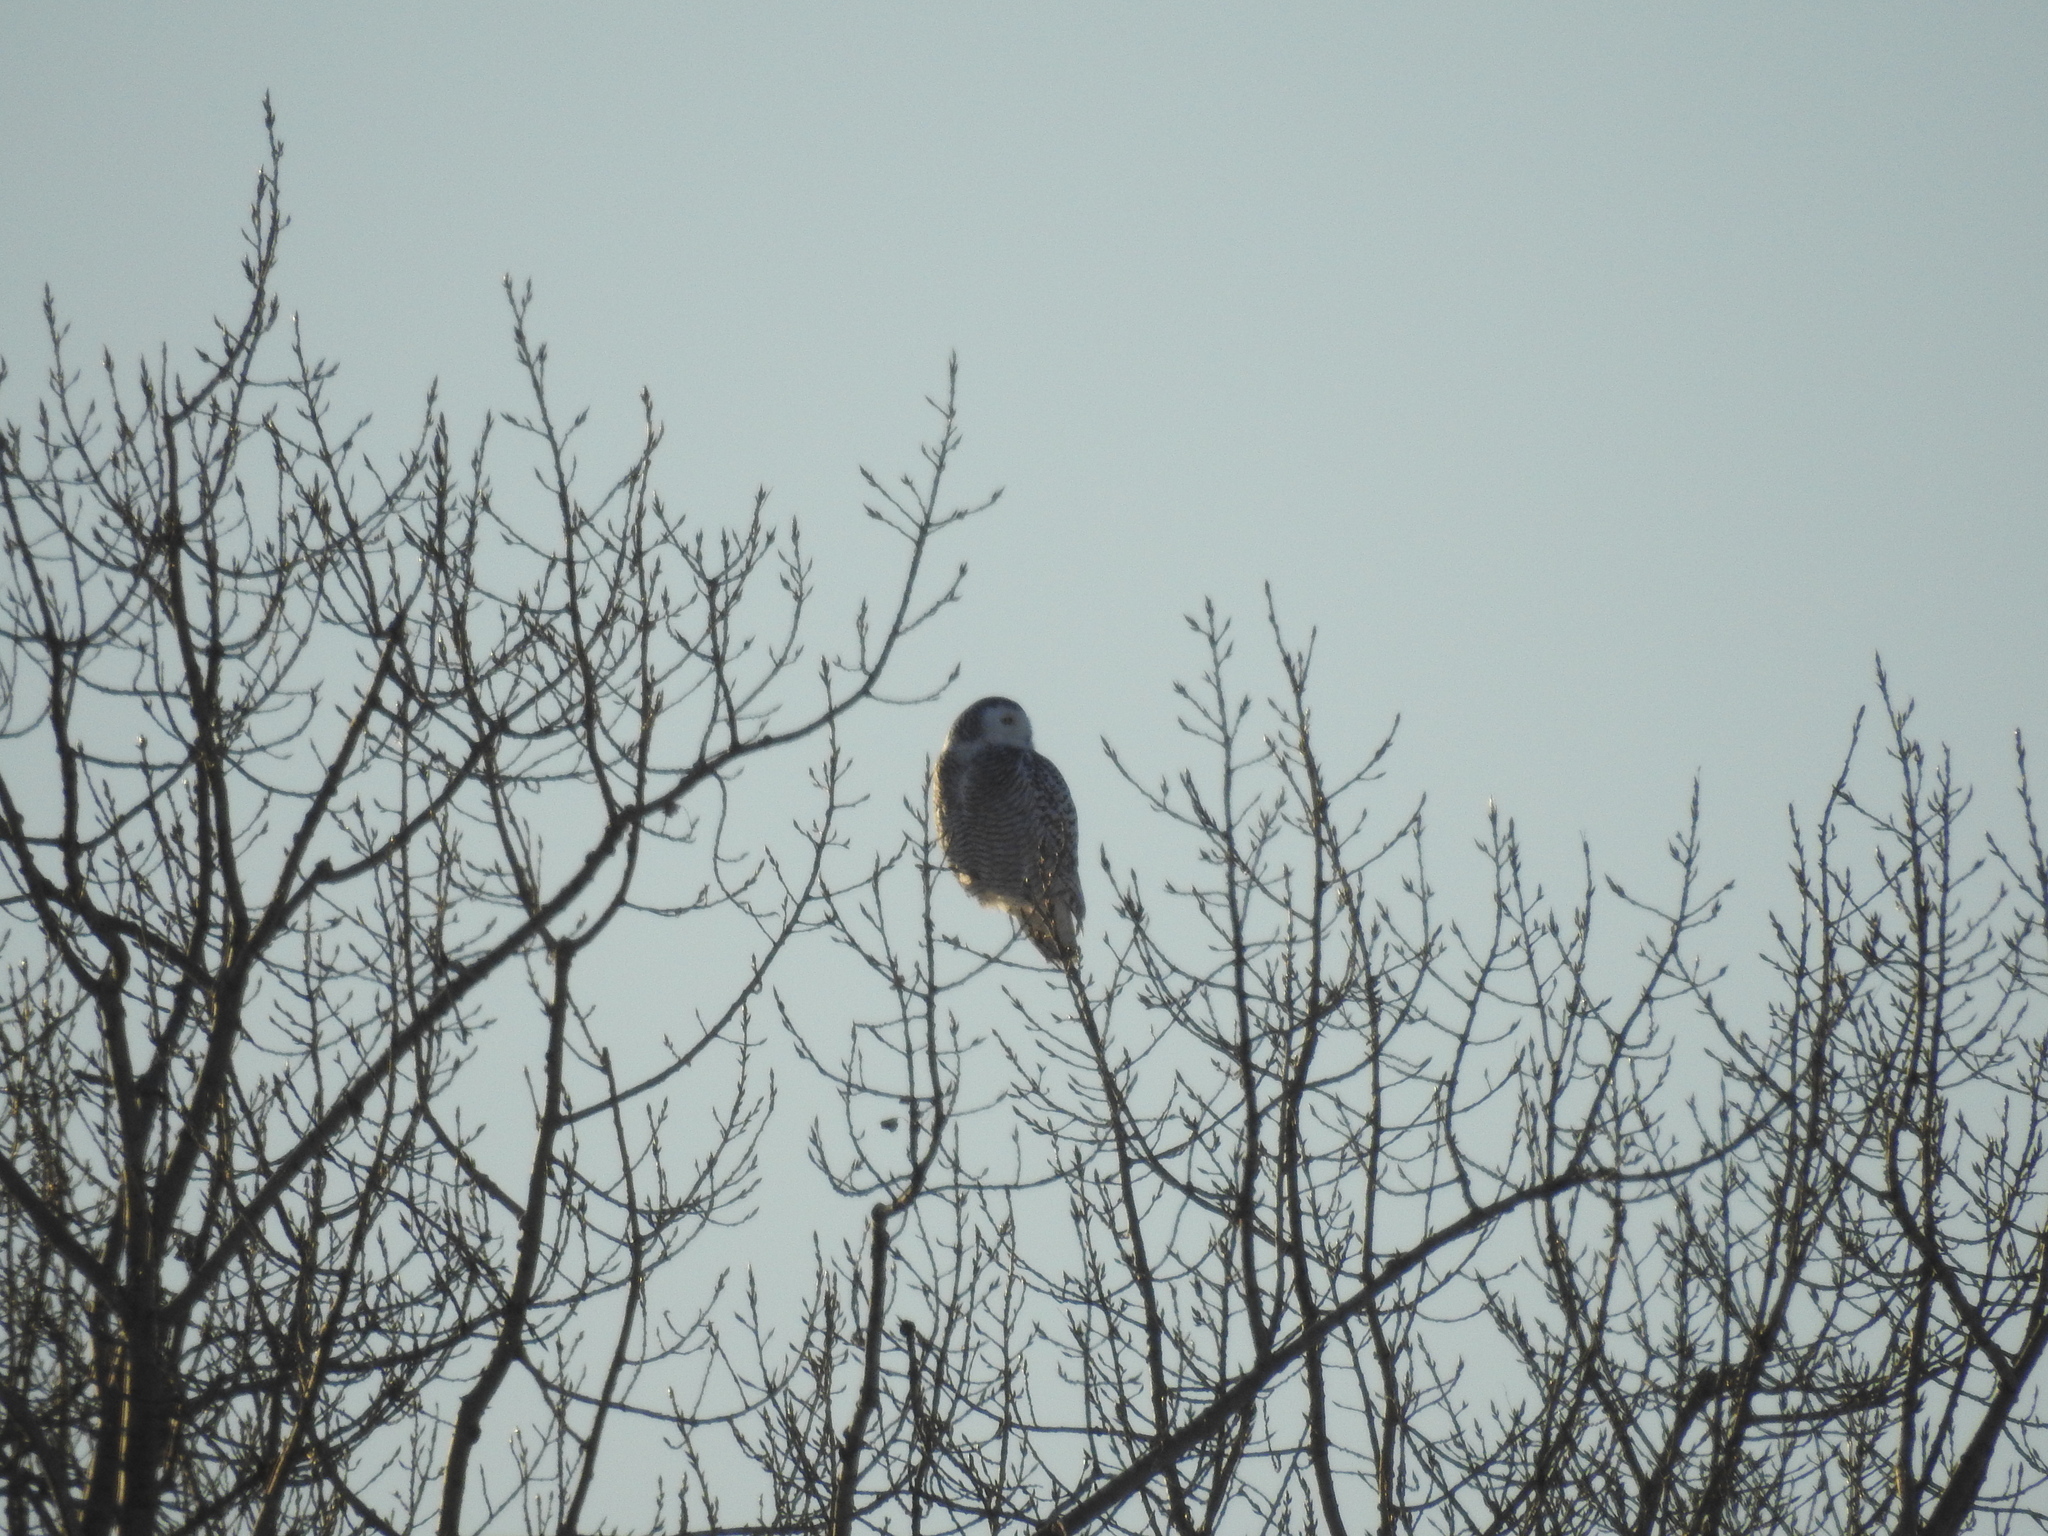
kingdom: Animalia
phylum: Chordata
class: Aves
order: Strigiformes
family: Strigidae
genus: Bubo
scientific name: Bubo scandiacus
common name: Snowy owl
